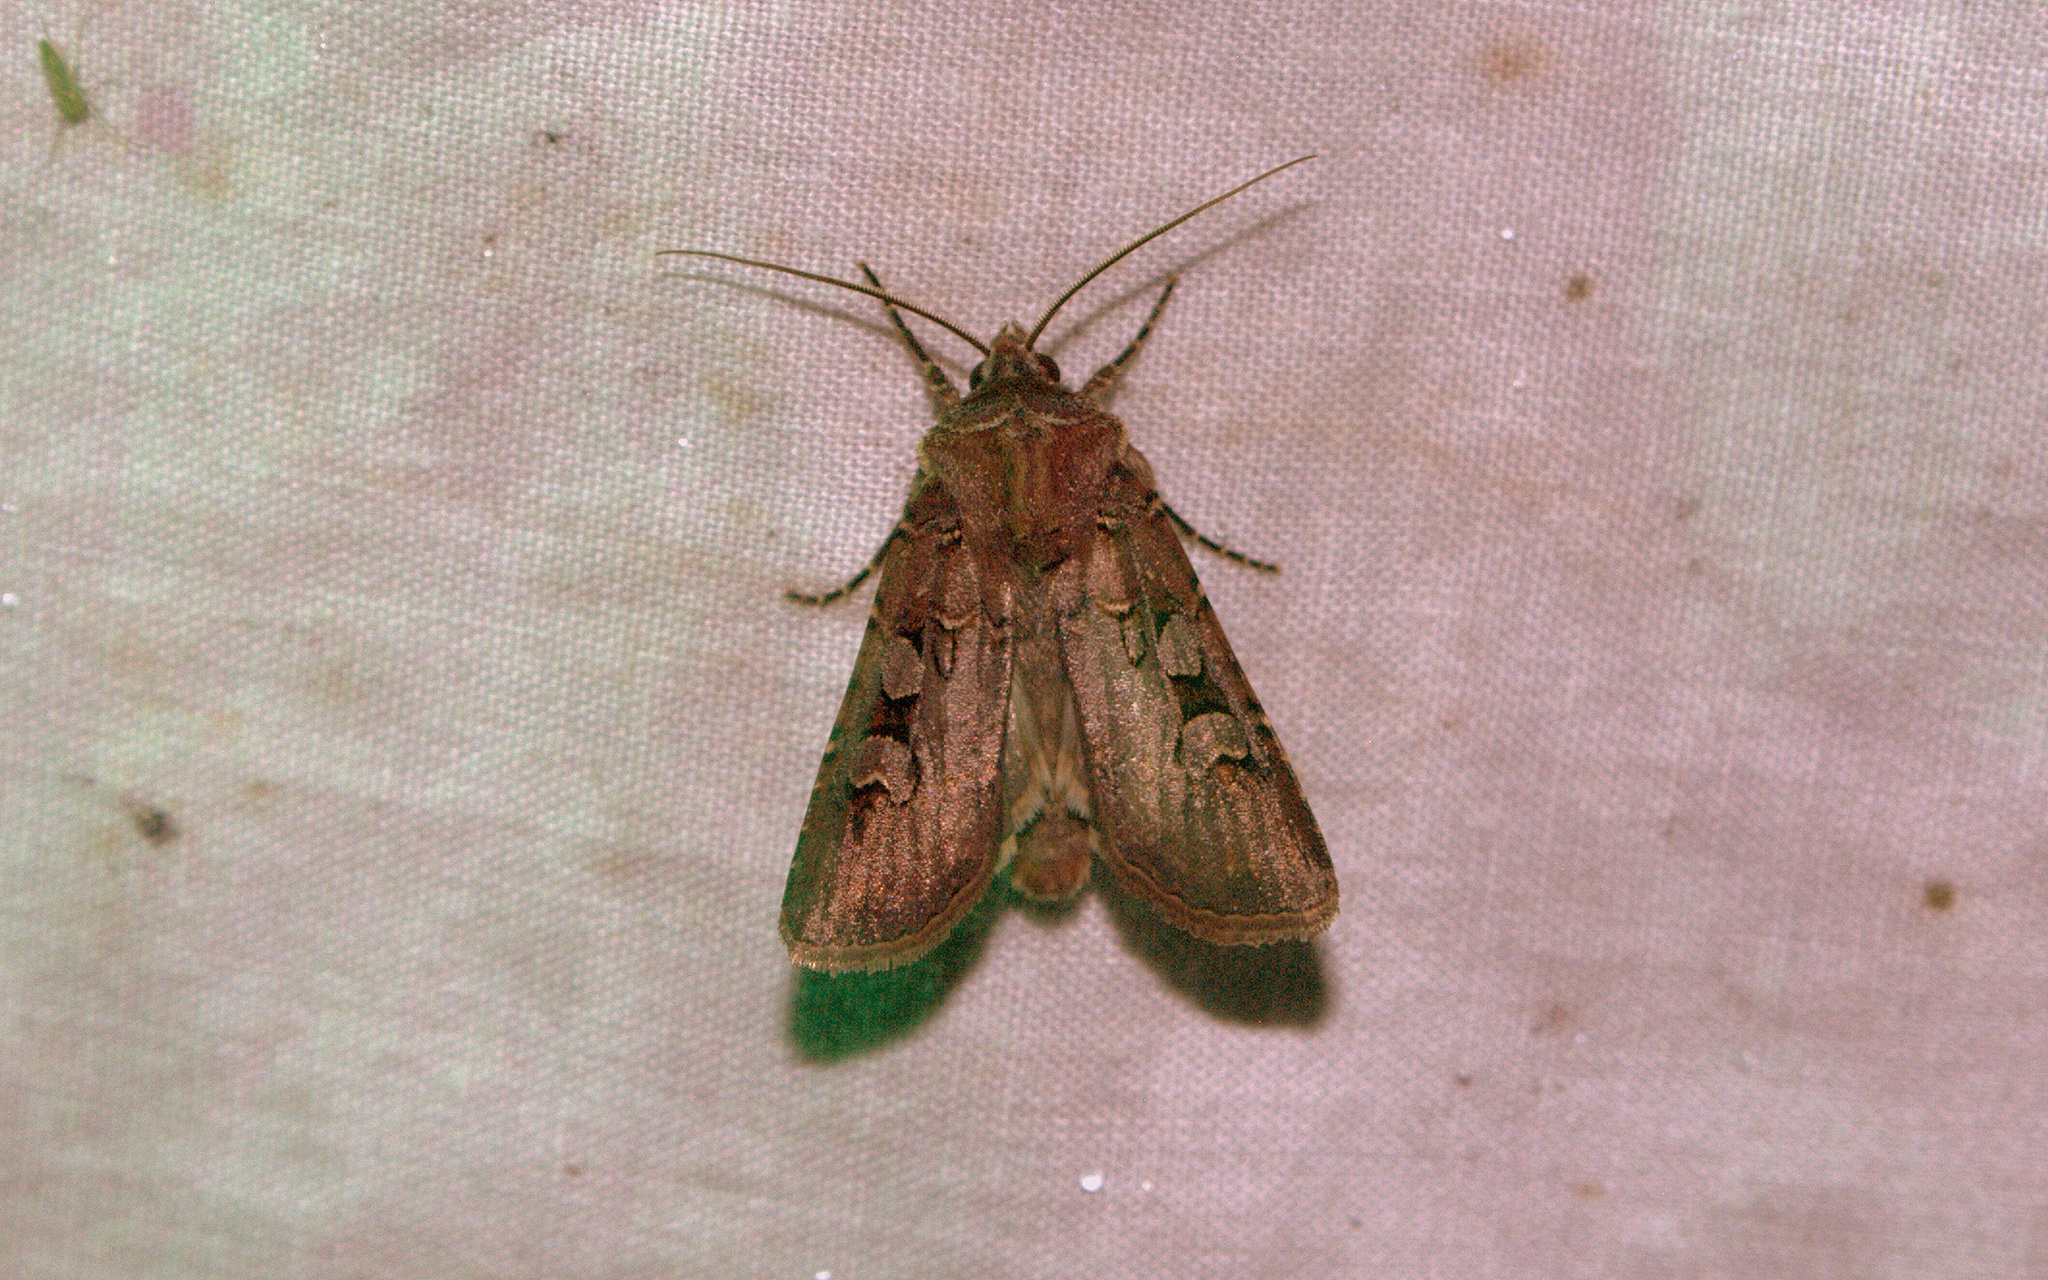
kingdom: Animalia
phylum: Arthropoda
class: Insecta
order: Lepidoptera
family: Noctuidae
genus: Euxoa
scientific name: Euxoa campestris
